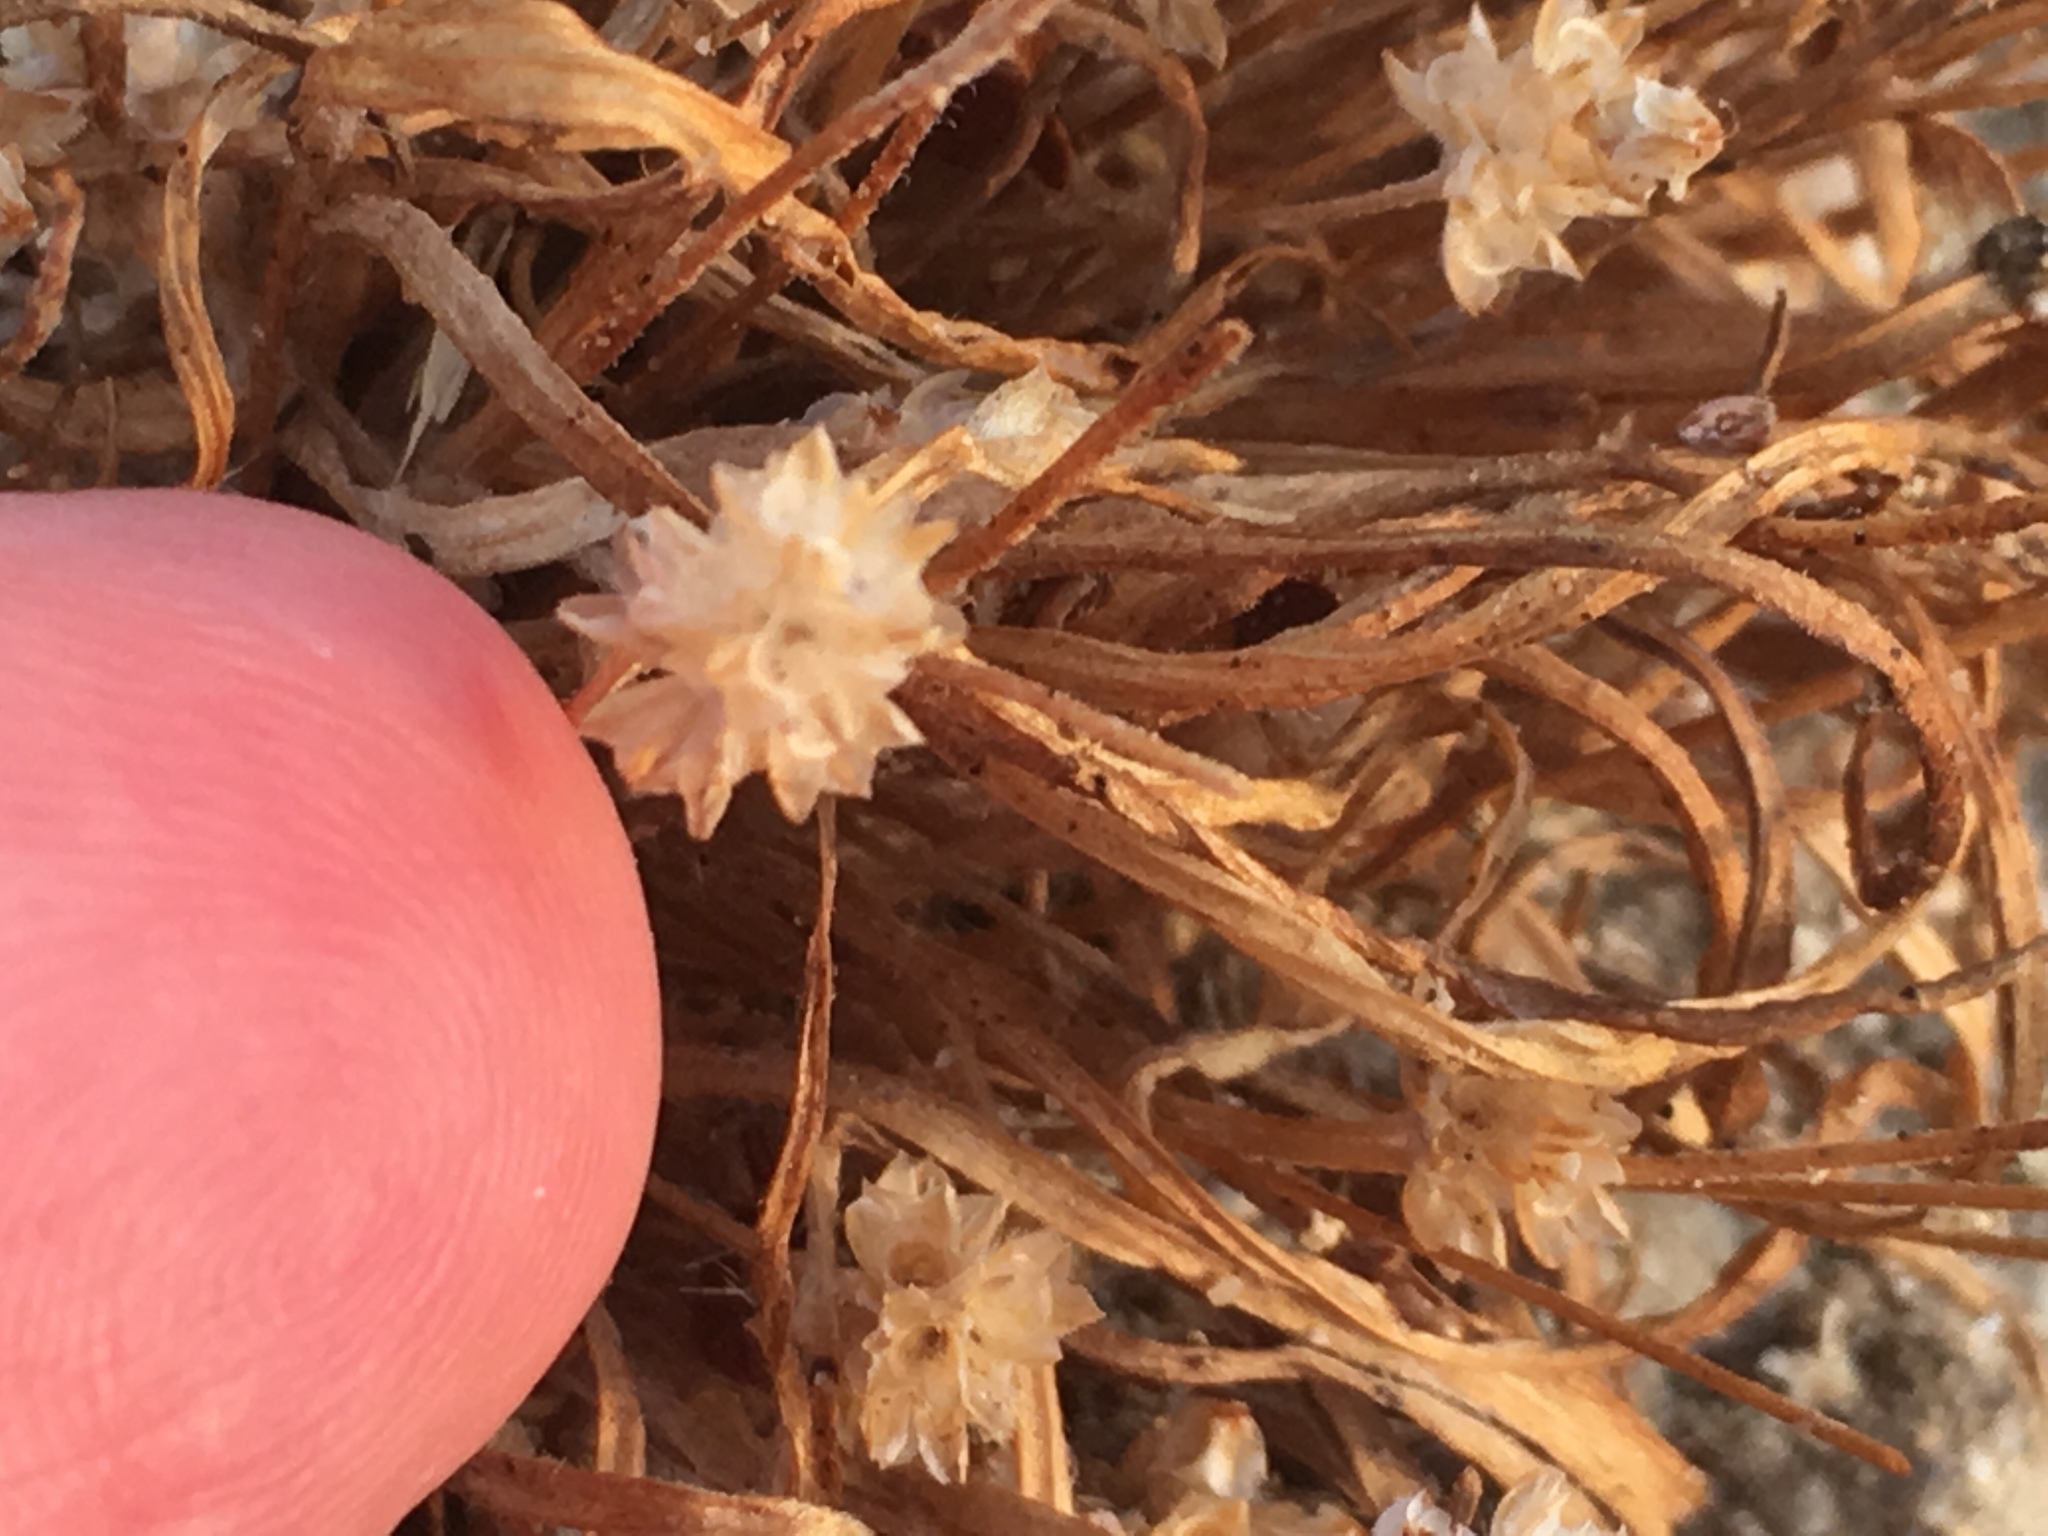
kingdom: Plantae
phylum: Tracheophyta
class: Magnoliopsida
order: Lamiales
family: Plantaginaceae
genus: Plantago
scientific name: Plantago ovata
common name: Blond plantain
